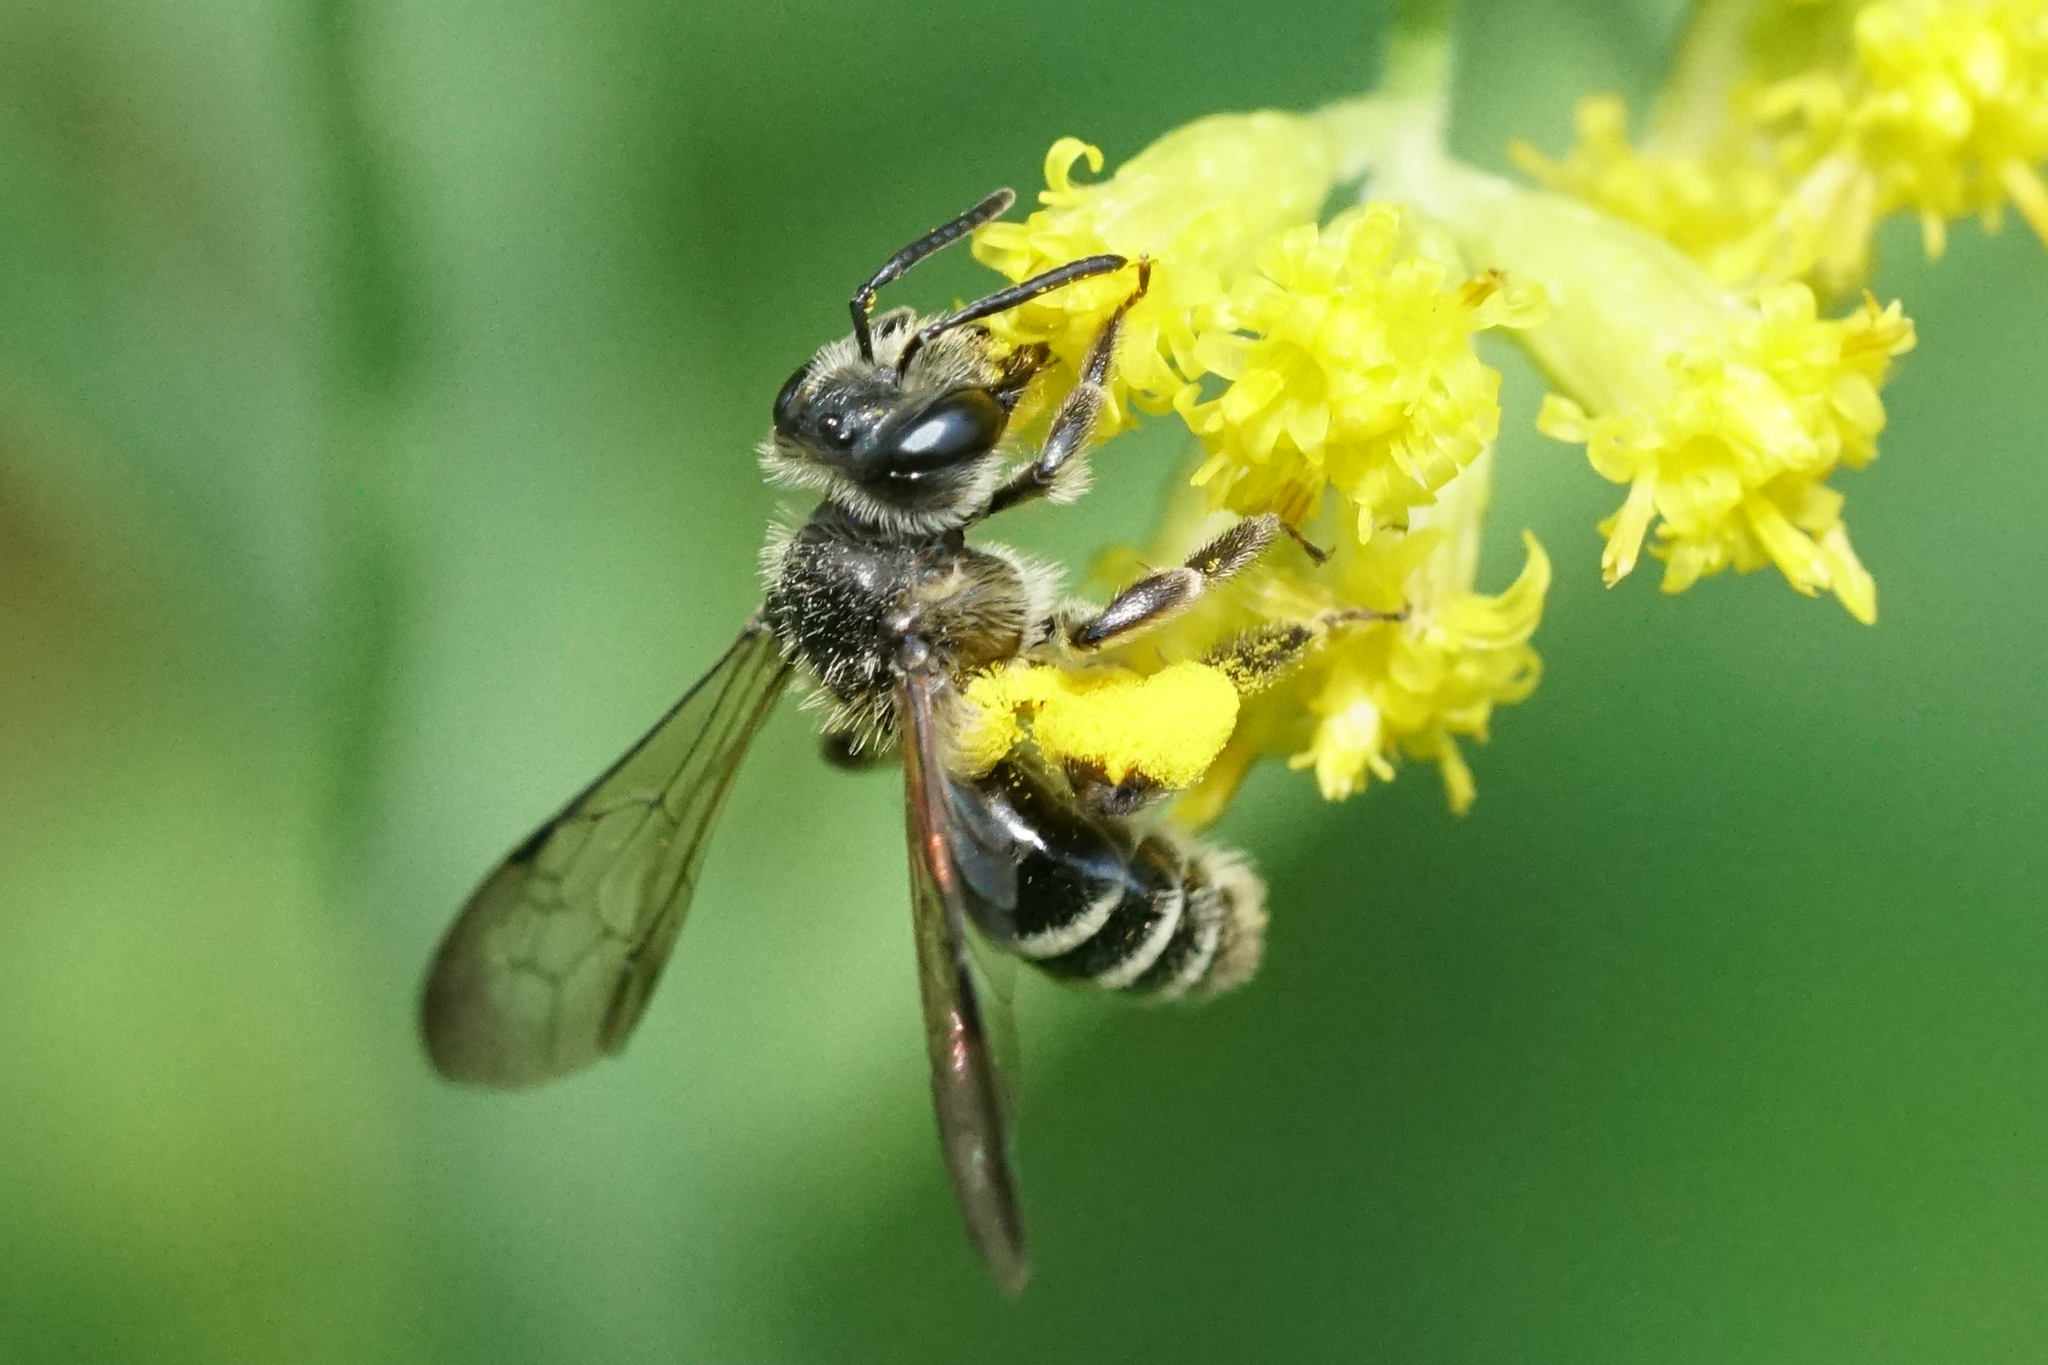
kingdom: Animalia
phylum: Arthropoda
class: Insecta
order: Hymenoptera
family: Andrenidae
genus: Andrena
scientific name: Andrena nubecula
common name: Cloudy-winged mining bee
